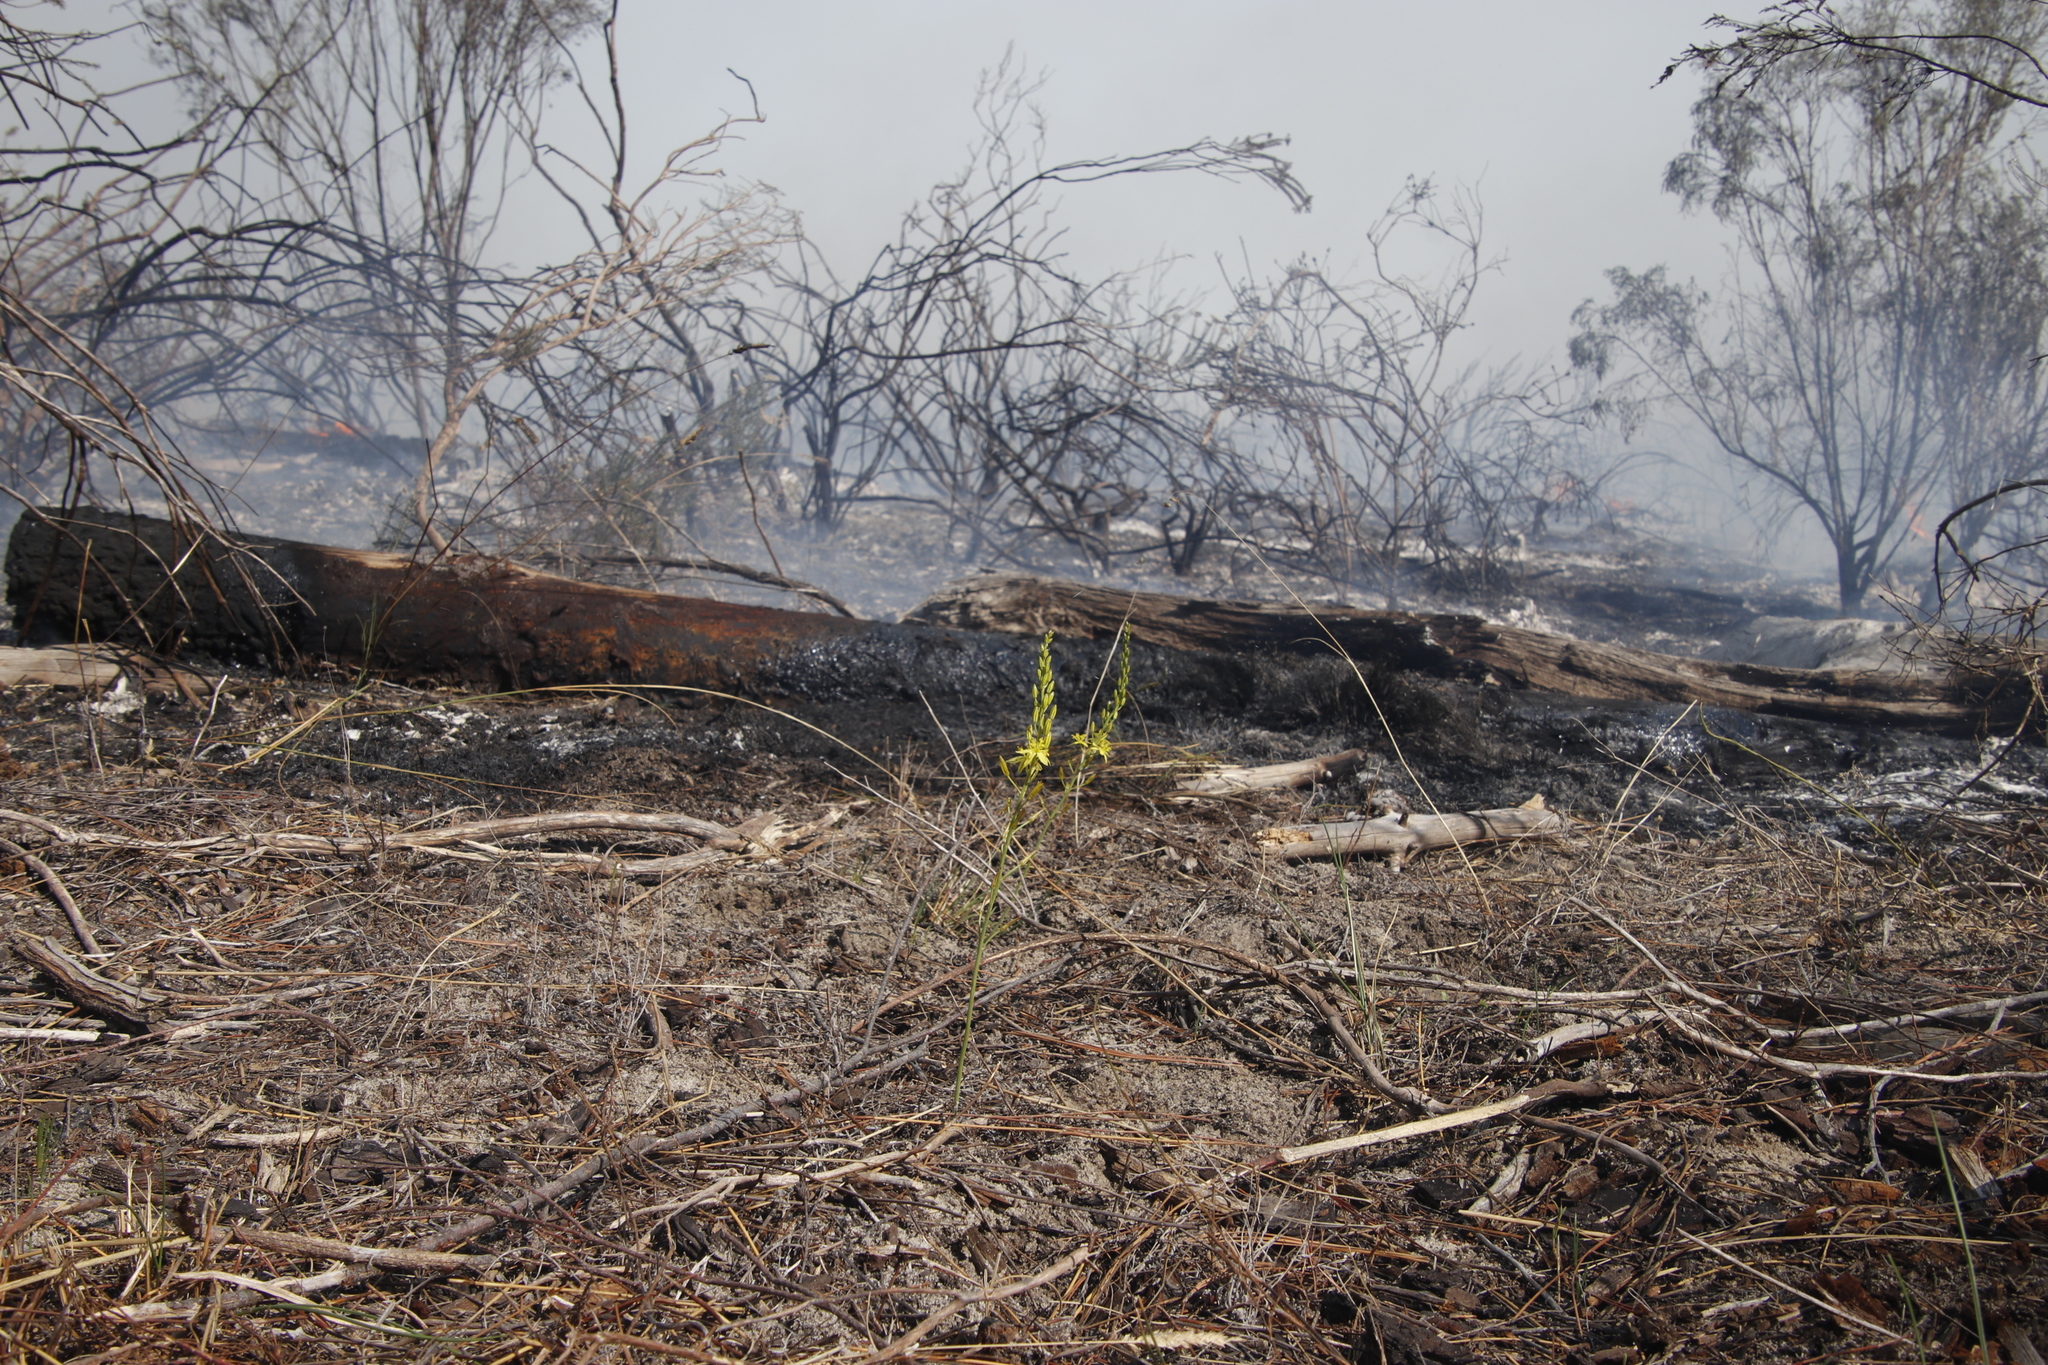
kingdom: Plantae
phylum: Tracheophyta
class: Liliopsida
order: Asparagales
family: Asphodelaceae
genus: Bulbine
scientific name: Bulbine favosa
